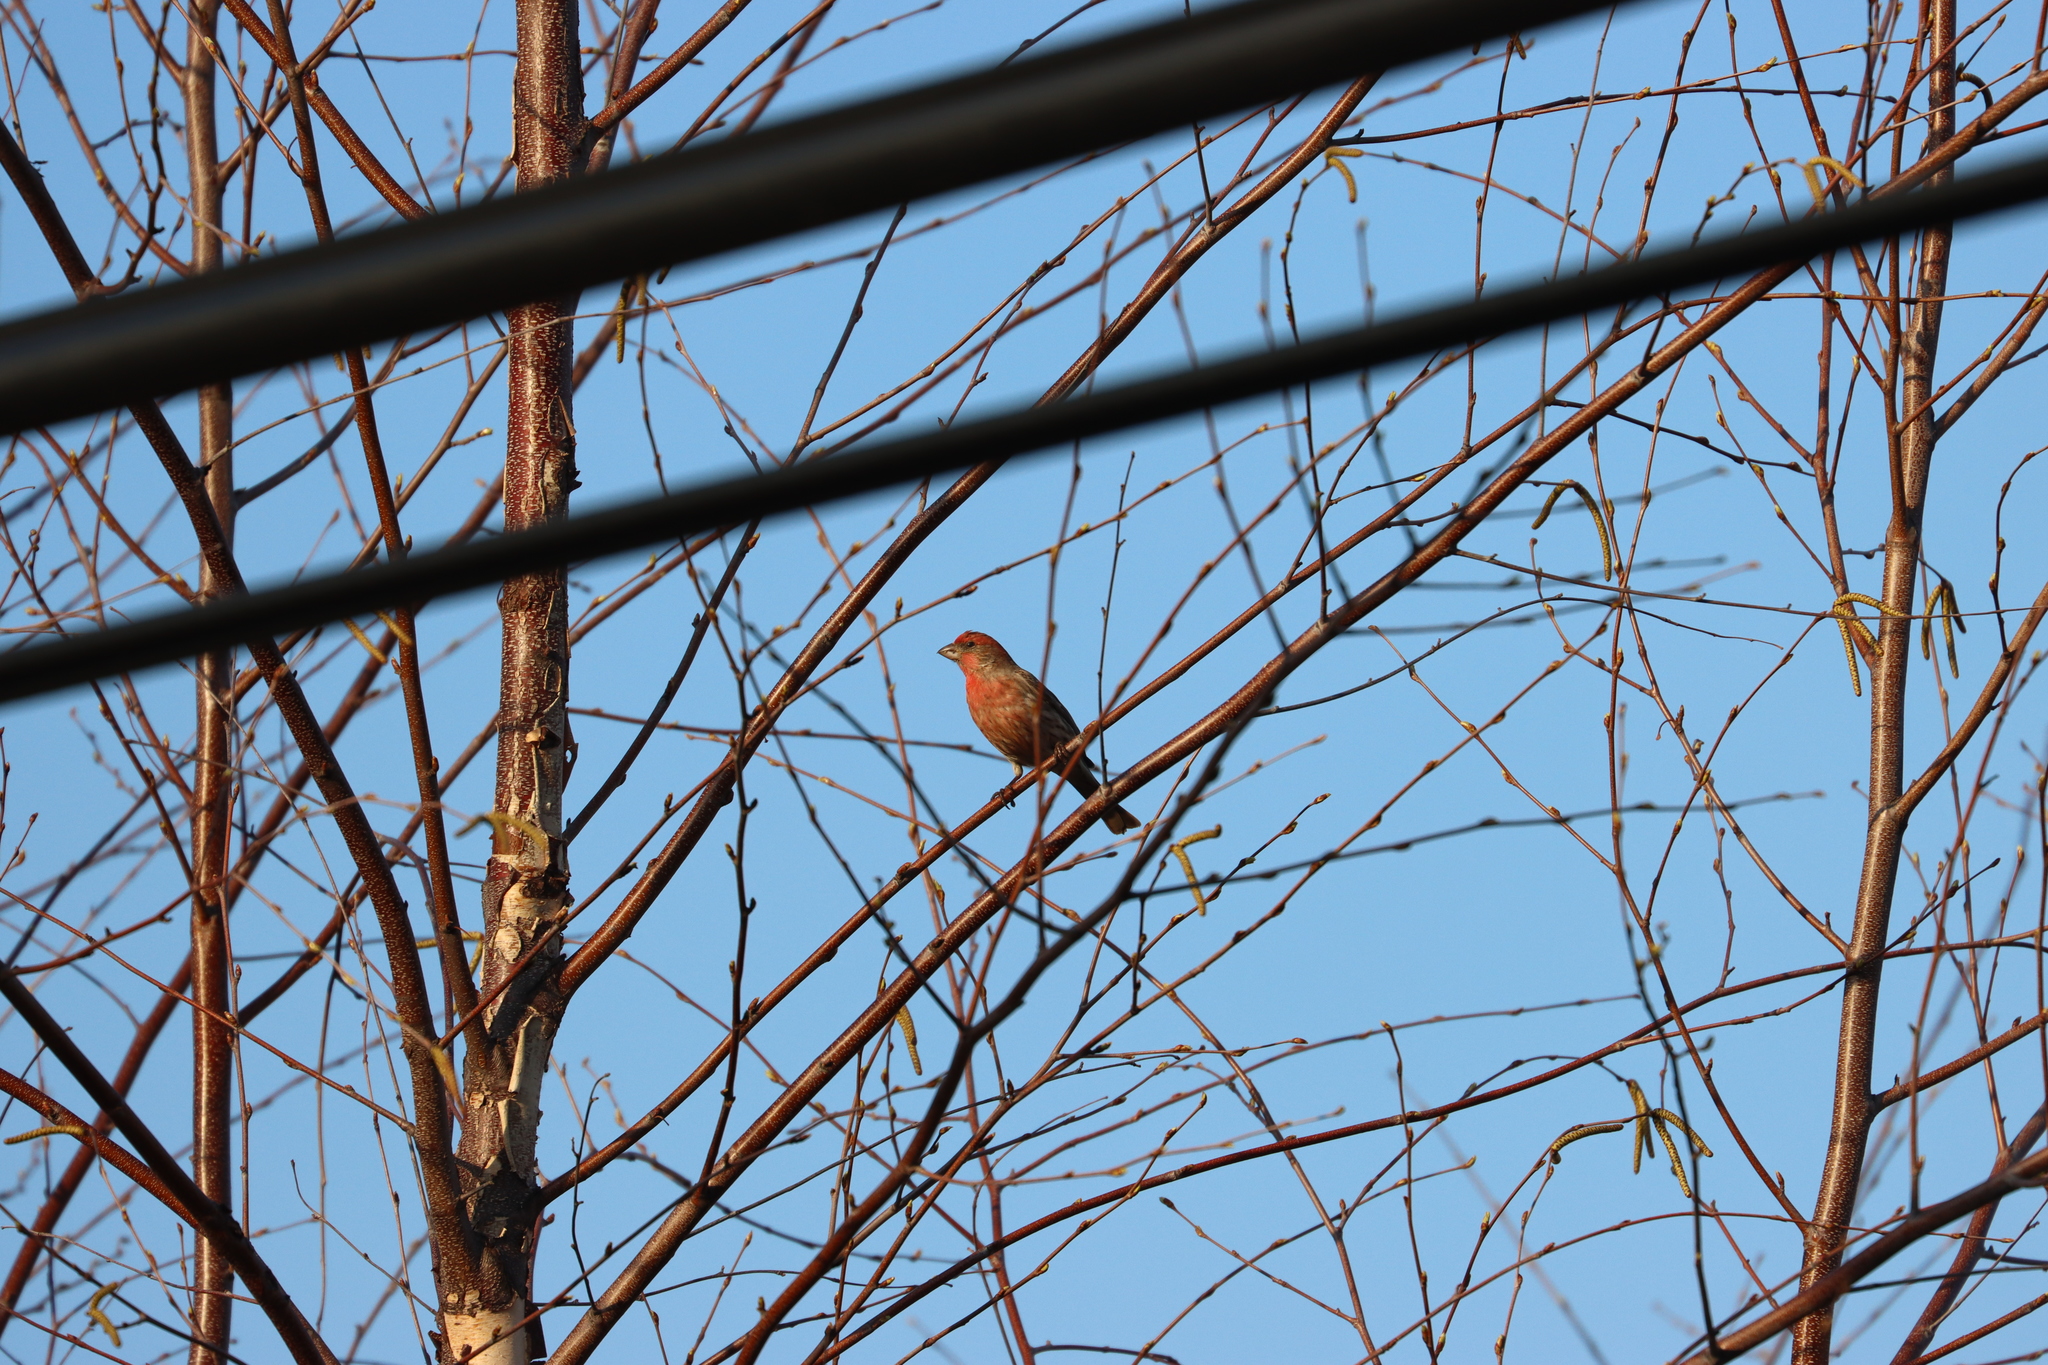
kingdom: Animalia
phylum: Chordata
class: Aves
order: Passeriformes
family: Fringillidae
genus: Haemorhous
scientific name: Haemorhous mexicanus
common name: House finch
